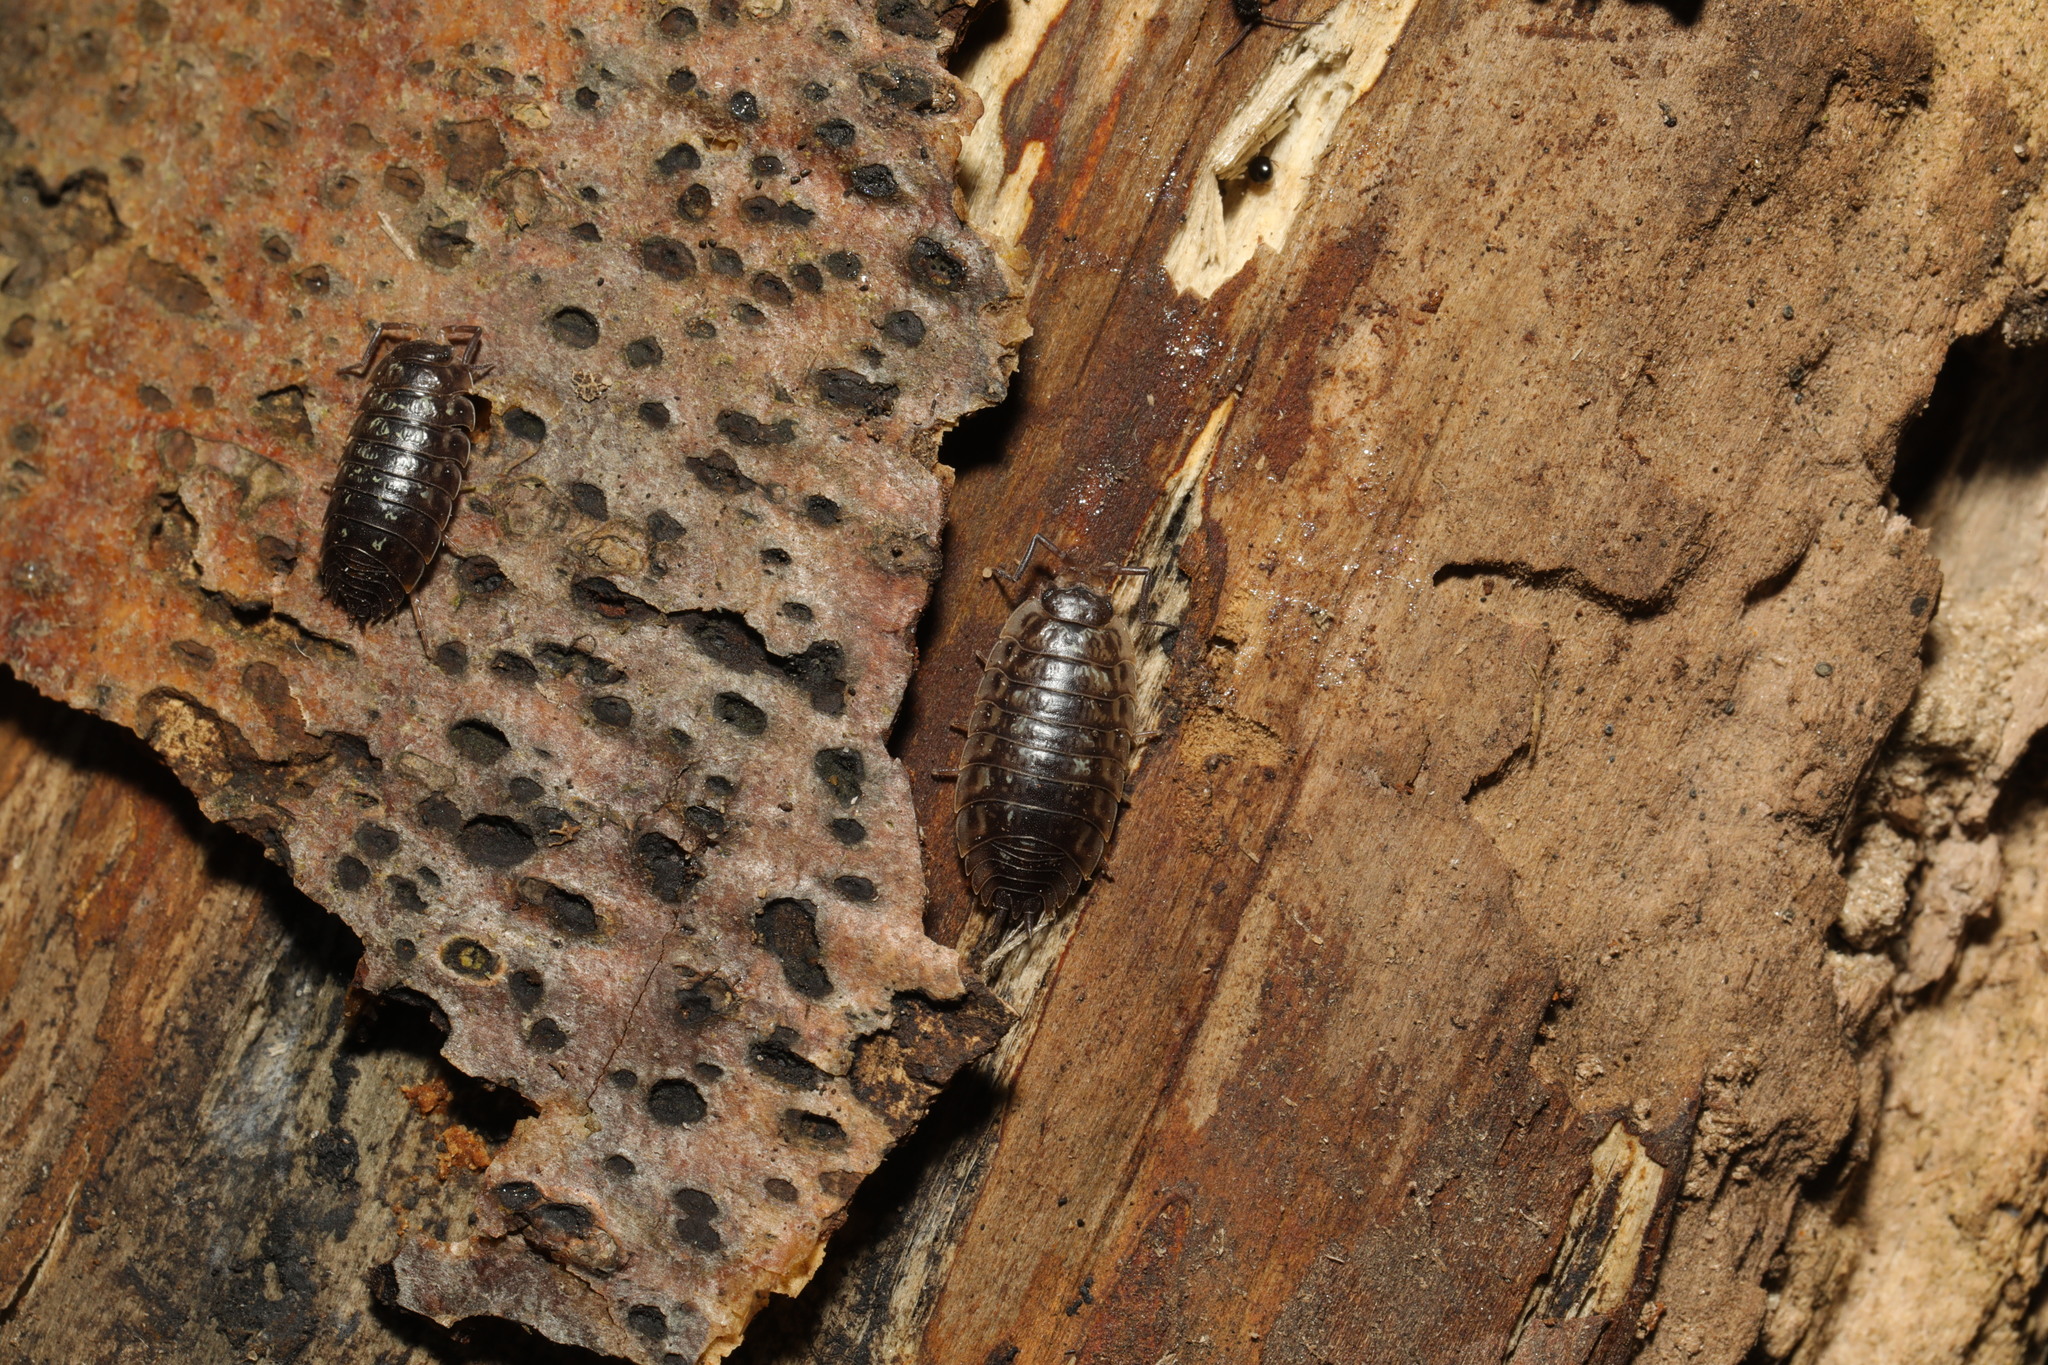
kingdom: Animalia
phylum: Arthropoda
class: Malacostraca
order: Isopoda
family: Oniscidae
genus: Oniscus
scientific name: Oniscus asellus
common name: Common shiny woodlouse
